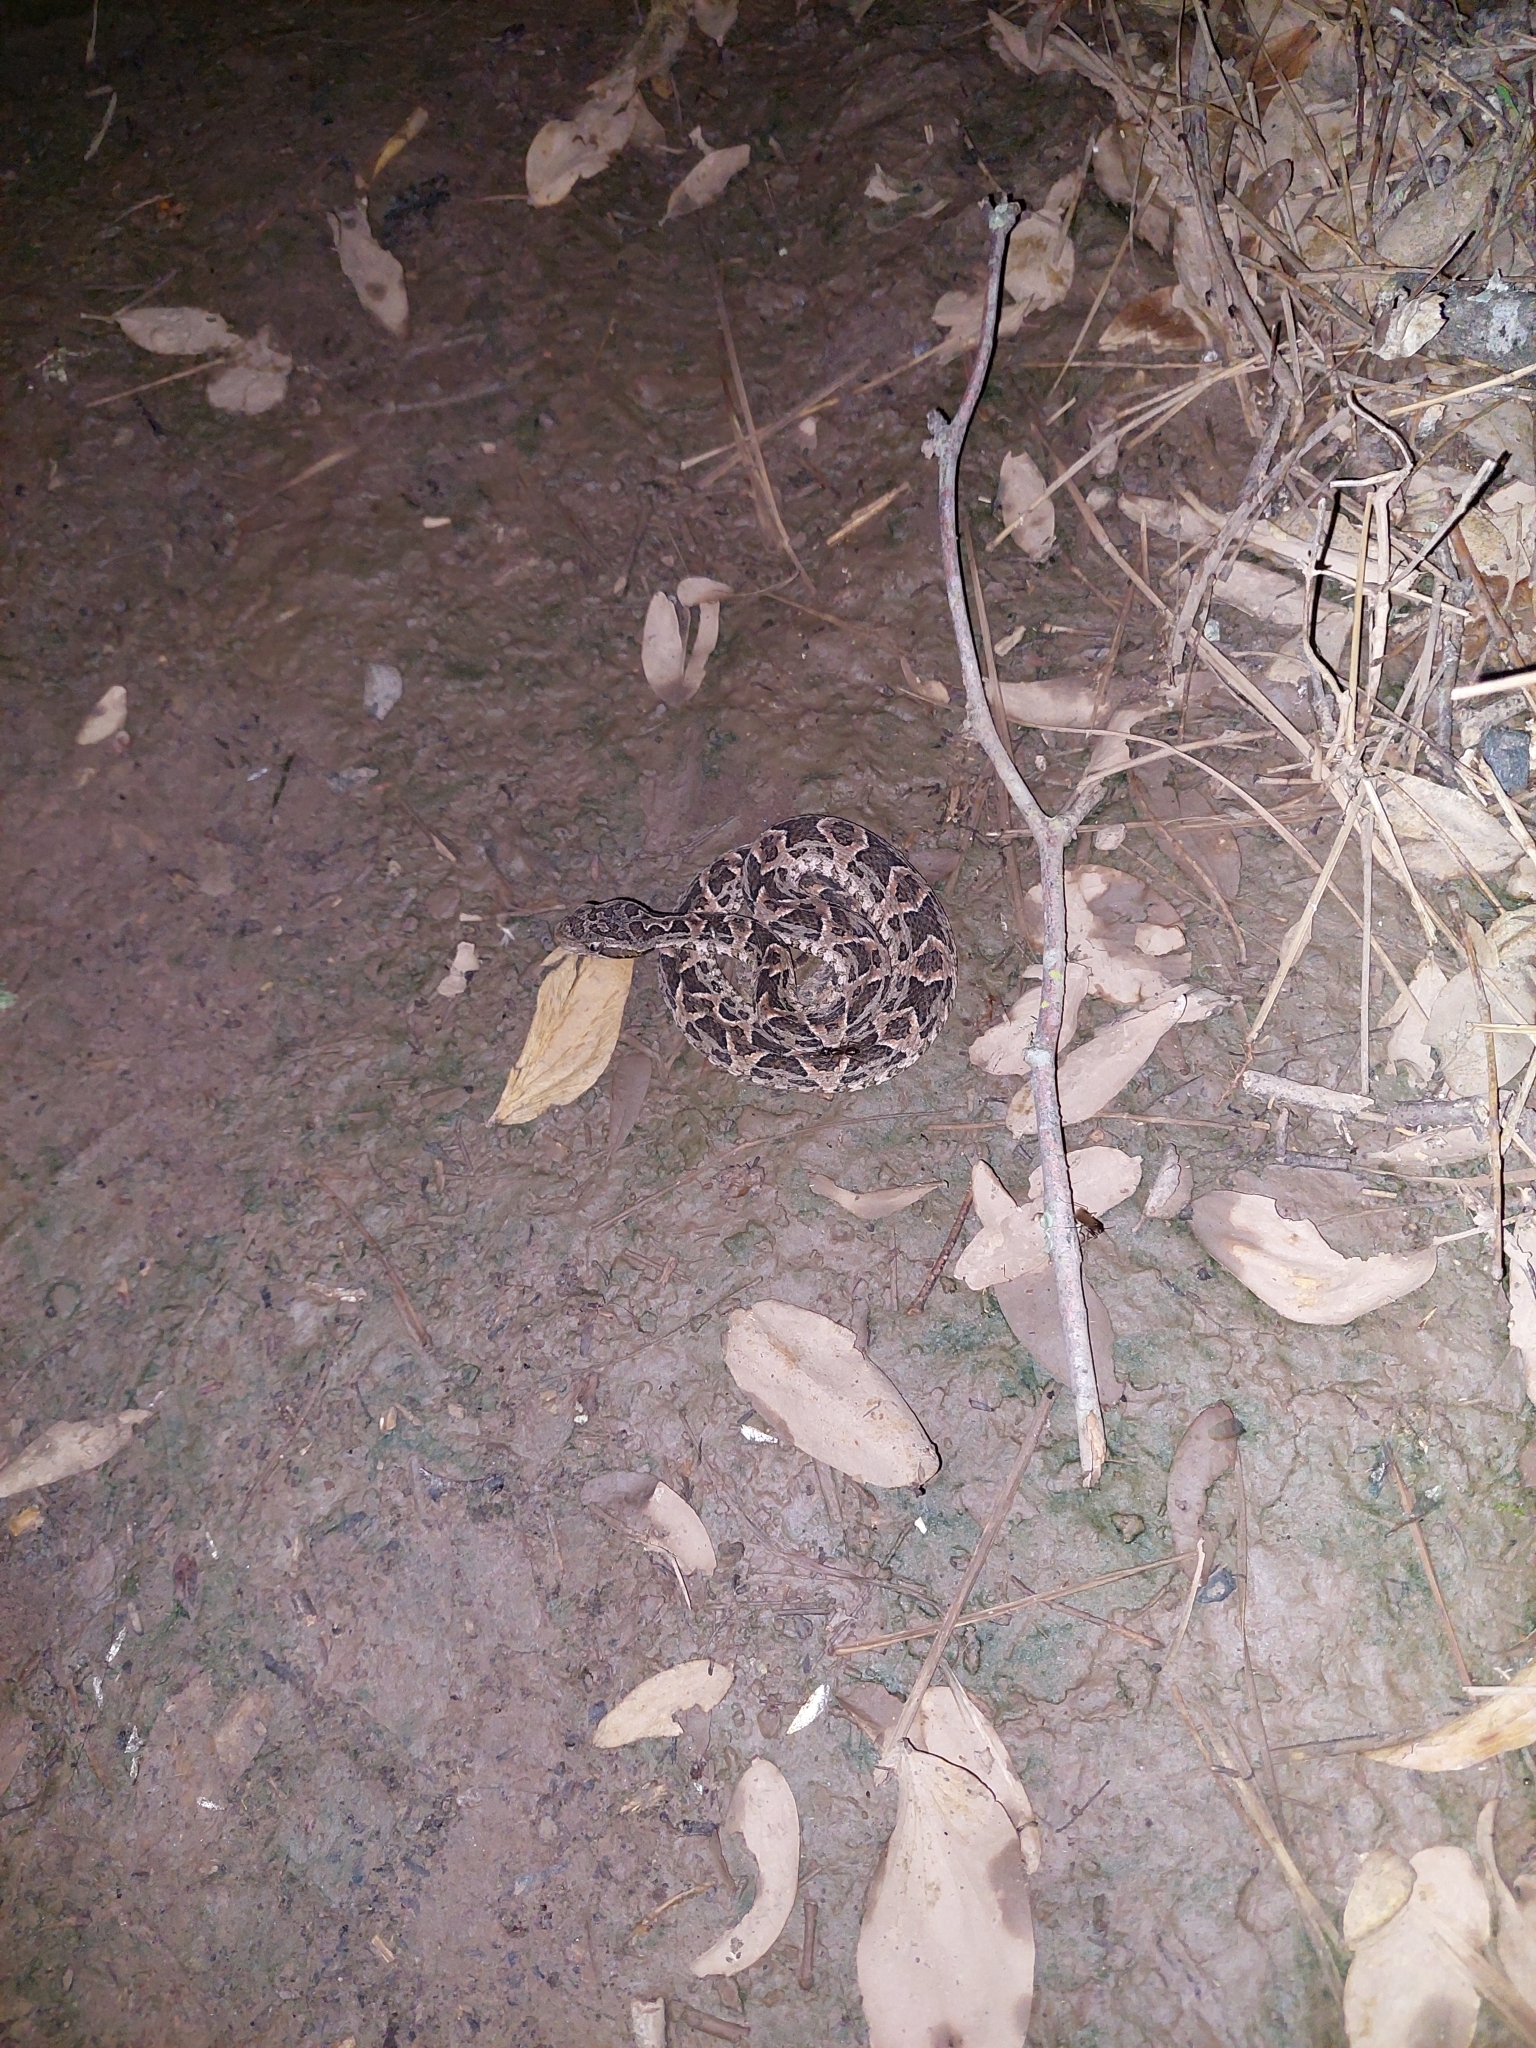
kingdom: Animalia
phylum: Chordata
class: Squamata
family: Viperidae
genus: Bothrops
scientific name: Bothrops diporus
